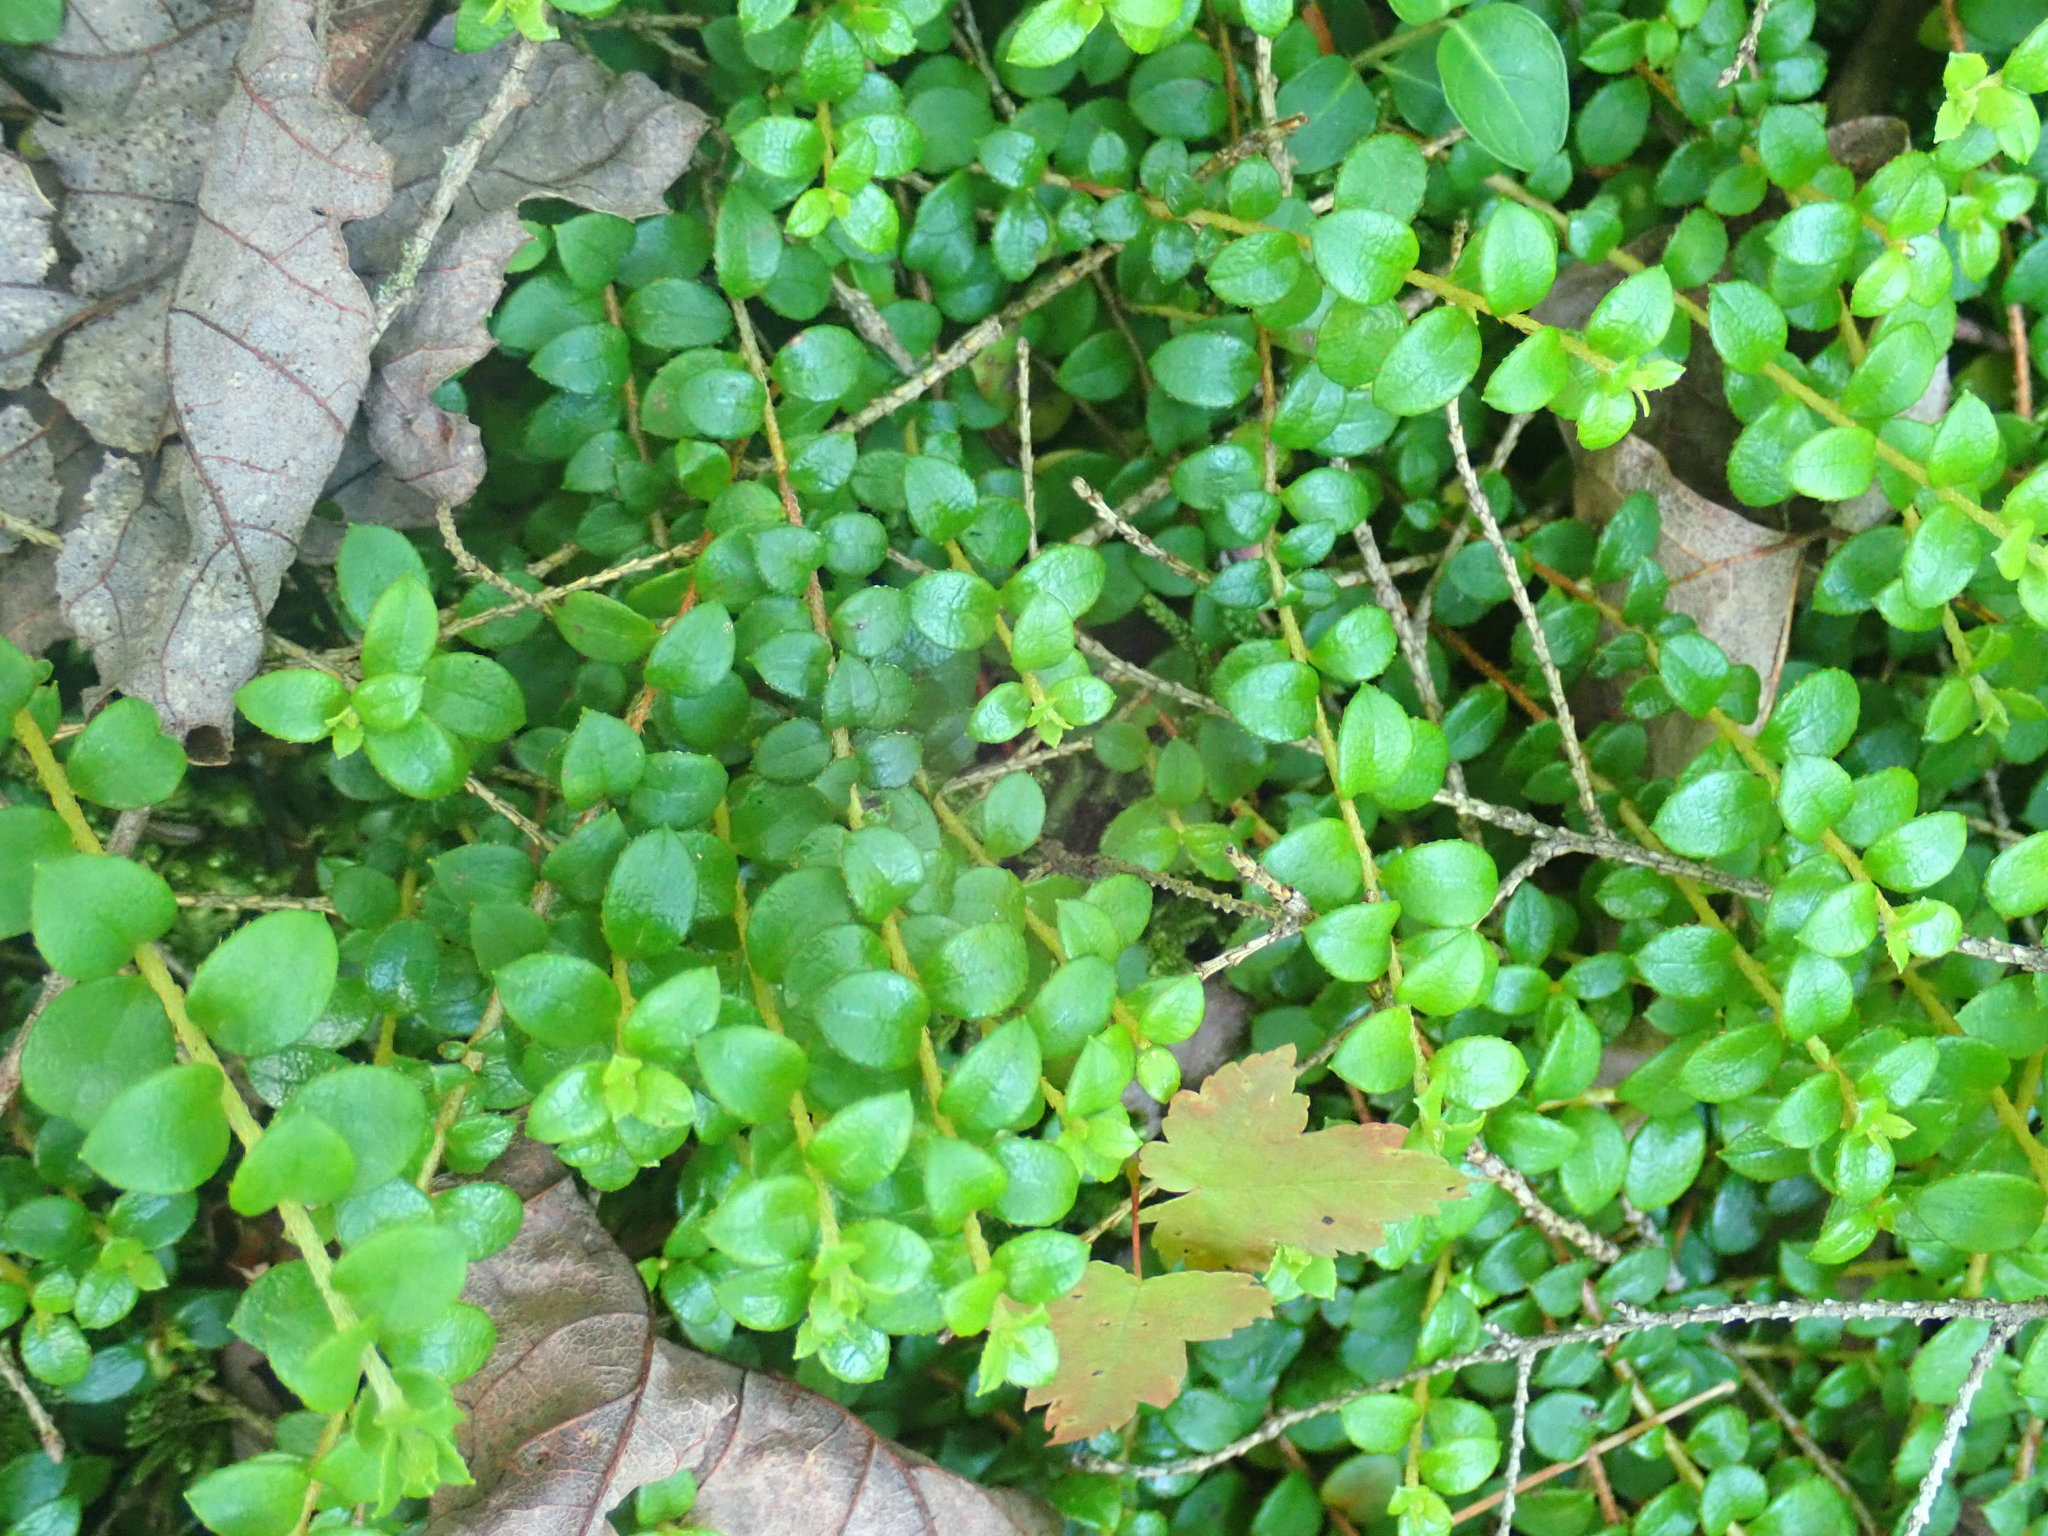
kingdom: Plantae
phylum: Tracheophyta
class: Magnoliopsida
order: Ericales
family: Ericaceae
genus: Gaultheria
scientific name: Gaultheria hispidula
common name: Cancer wintergreen
